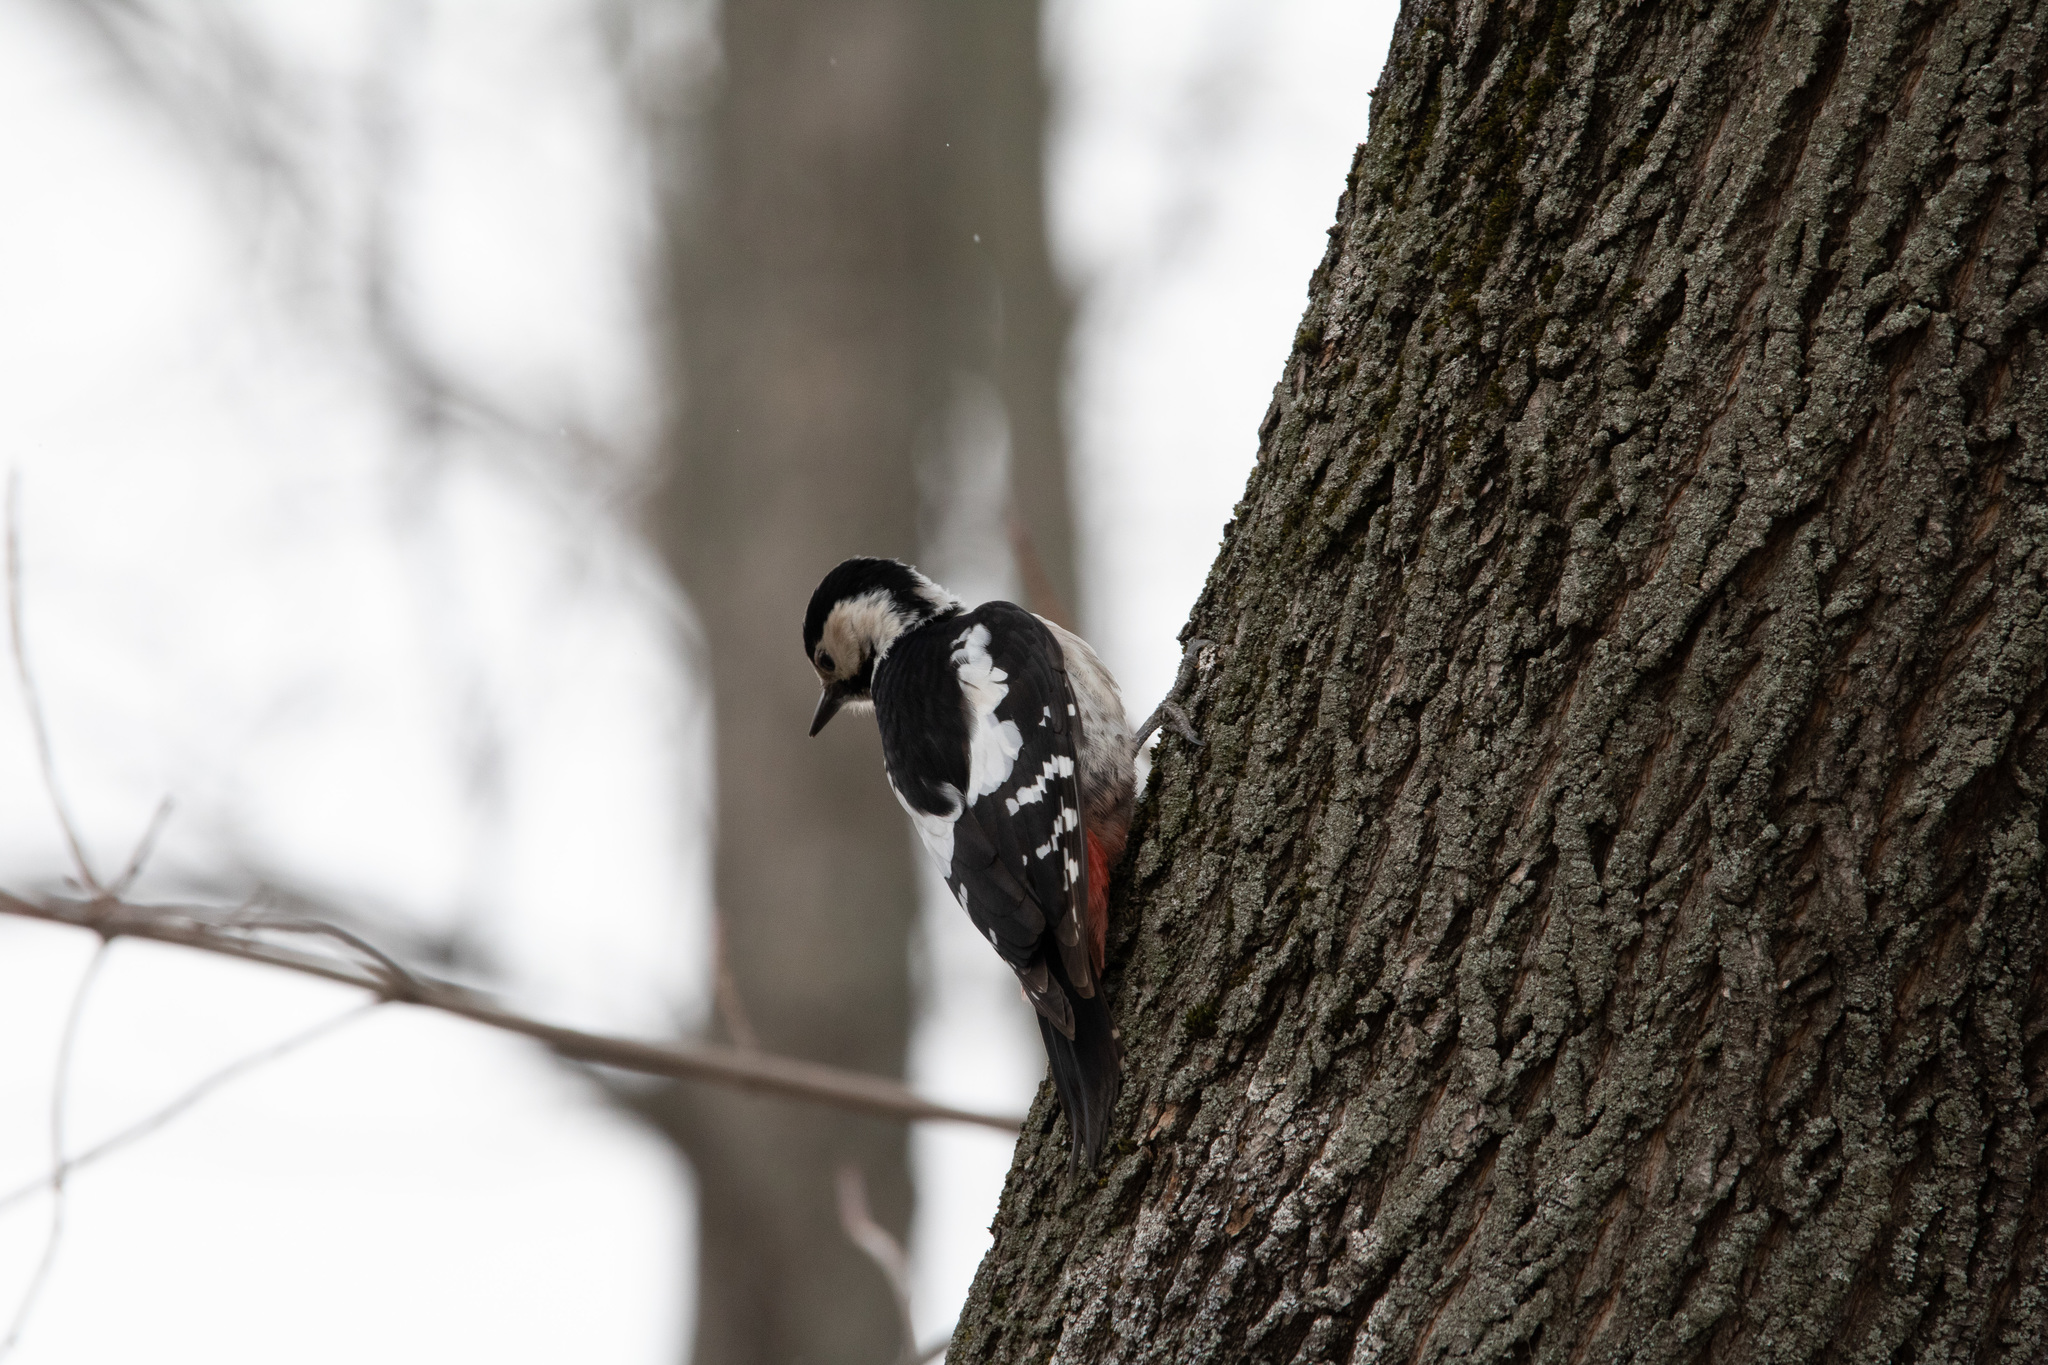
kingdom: Animalia
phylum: Chordata
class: Aves
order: Piciformes
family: Picidae
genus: Dendrocopos
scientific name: Dendrocopos syriacus
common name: Syrian woodpecker
